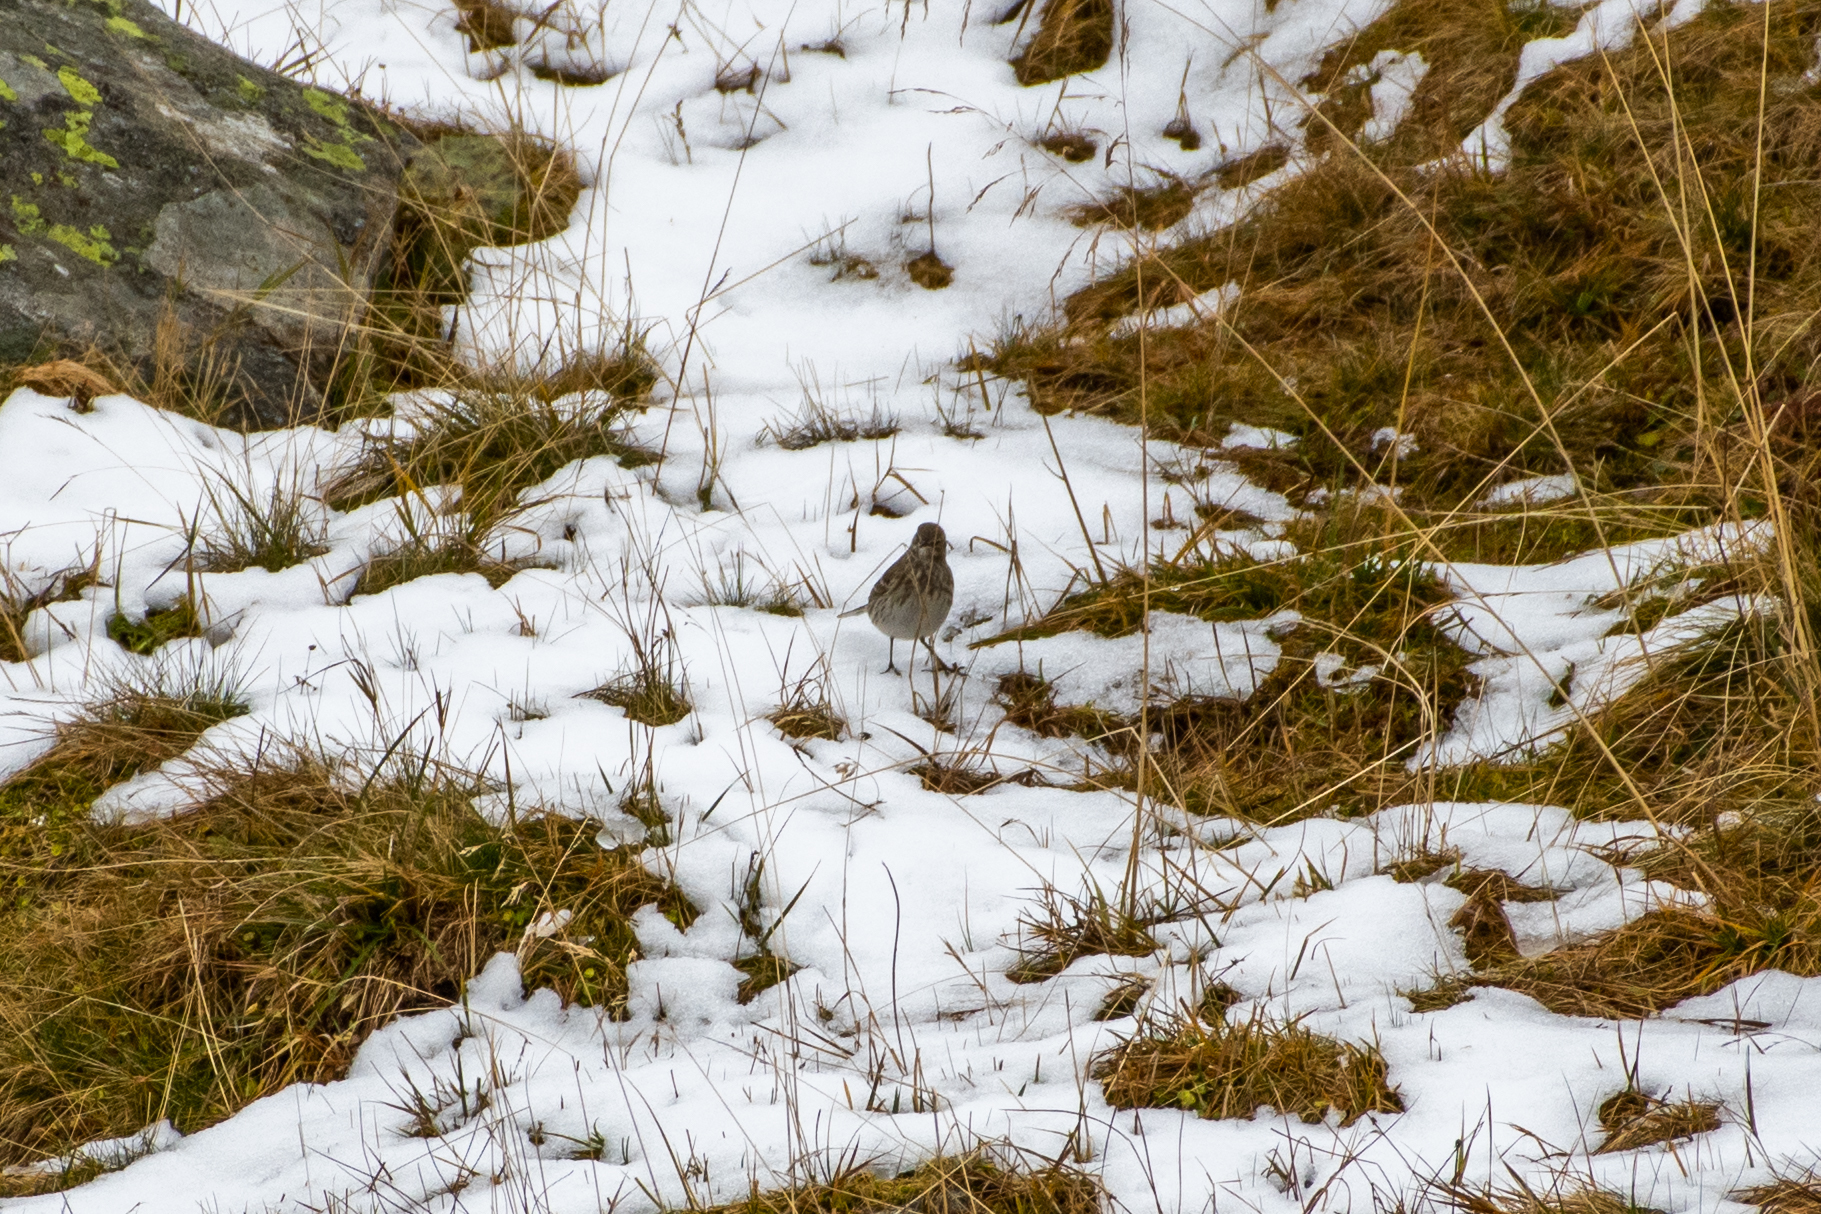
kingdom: Animalia
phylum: Chordata
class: Aves
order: Passeriformes
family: Motacillidae
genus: Anthus
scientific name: Anthus spinoletta
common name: Water pipit
